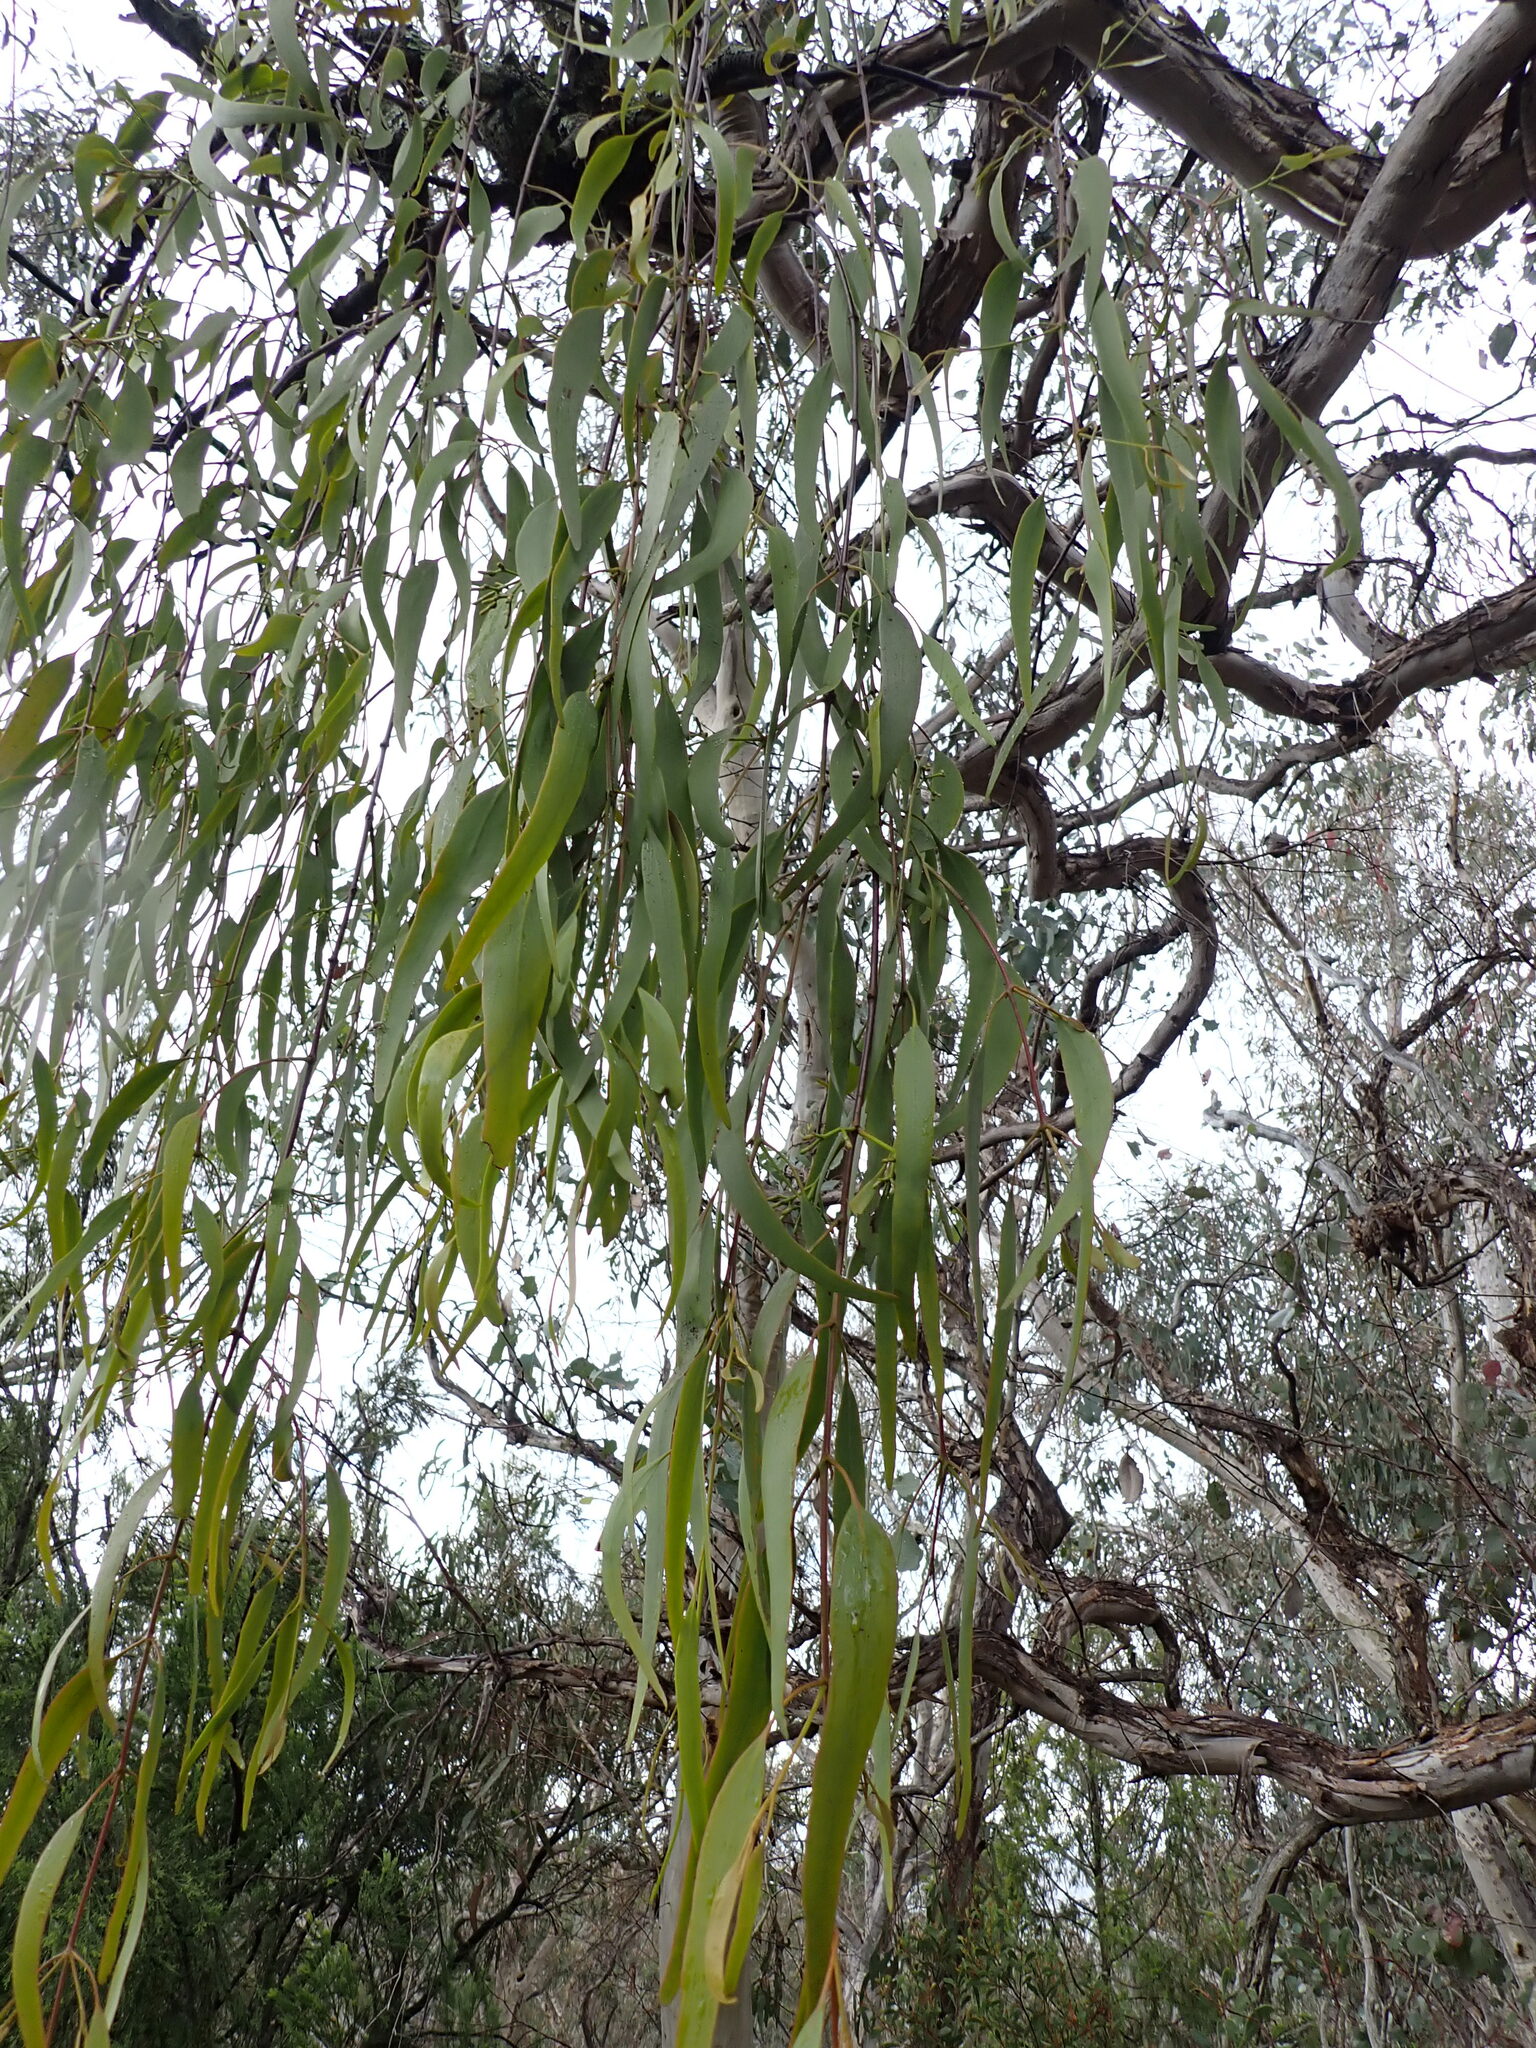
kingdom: Plantae
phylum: Tracheophyta
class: Magnoliopsida
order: Santalales
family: Loranthaceae
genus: Amyema
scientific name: Amyema pendula
